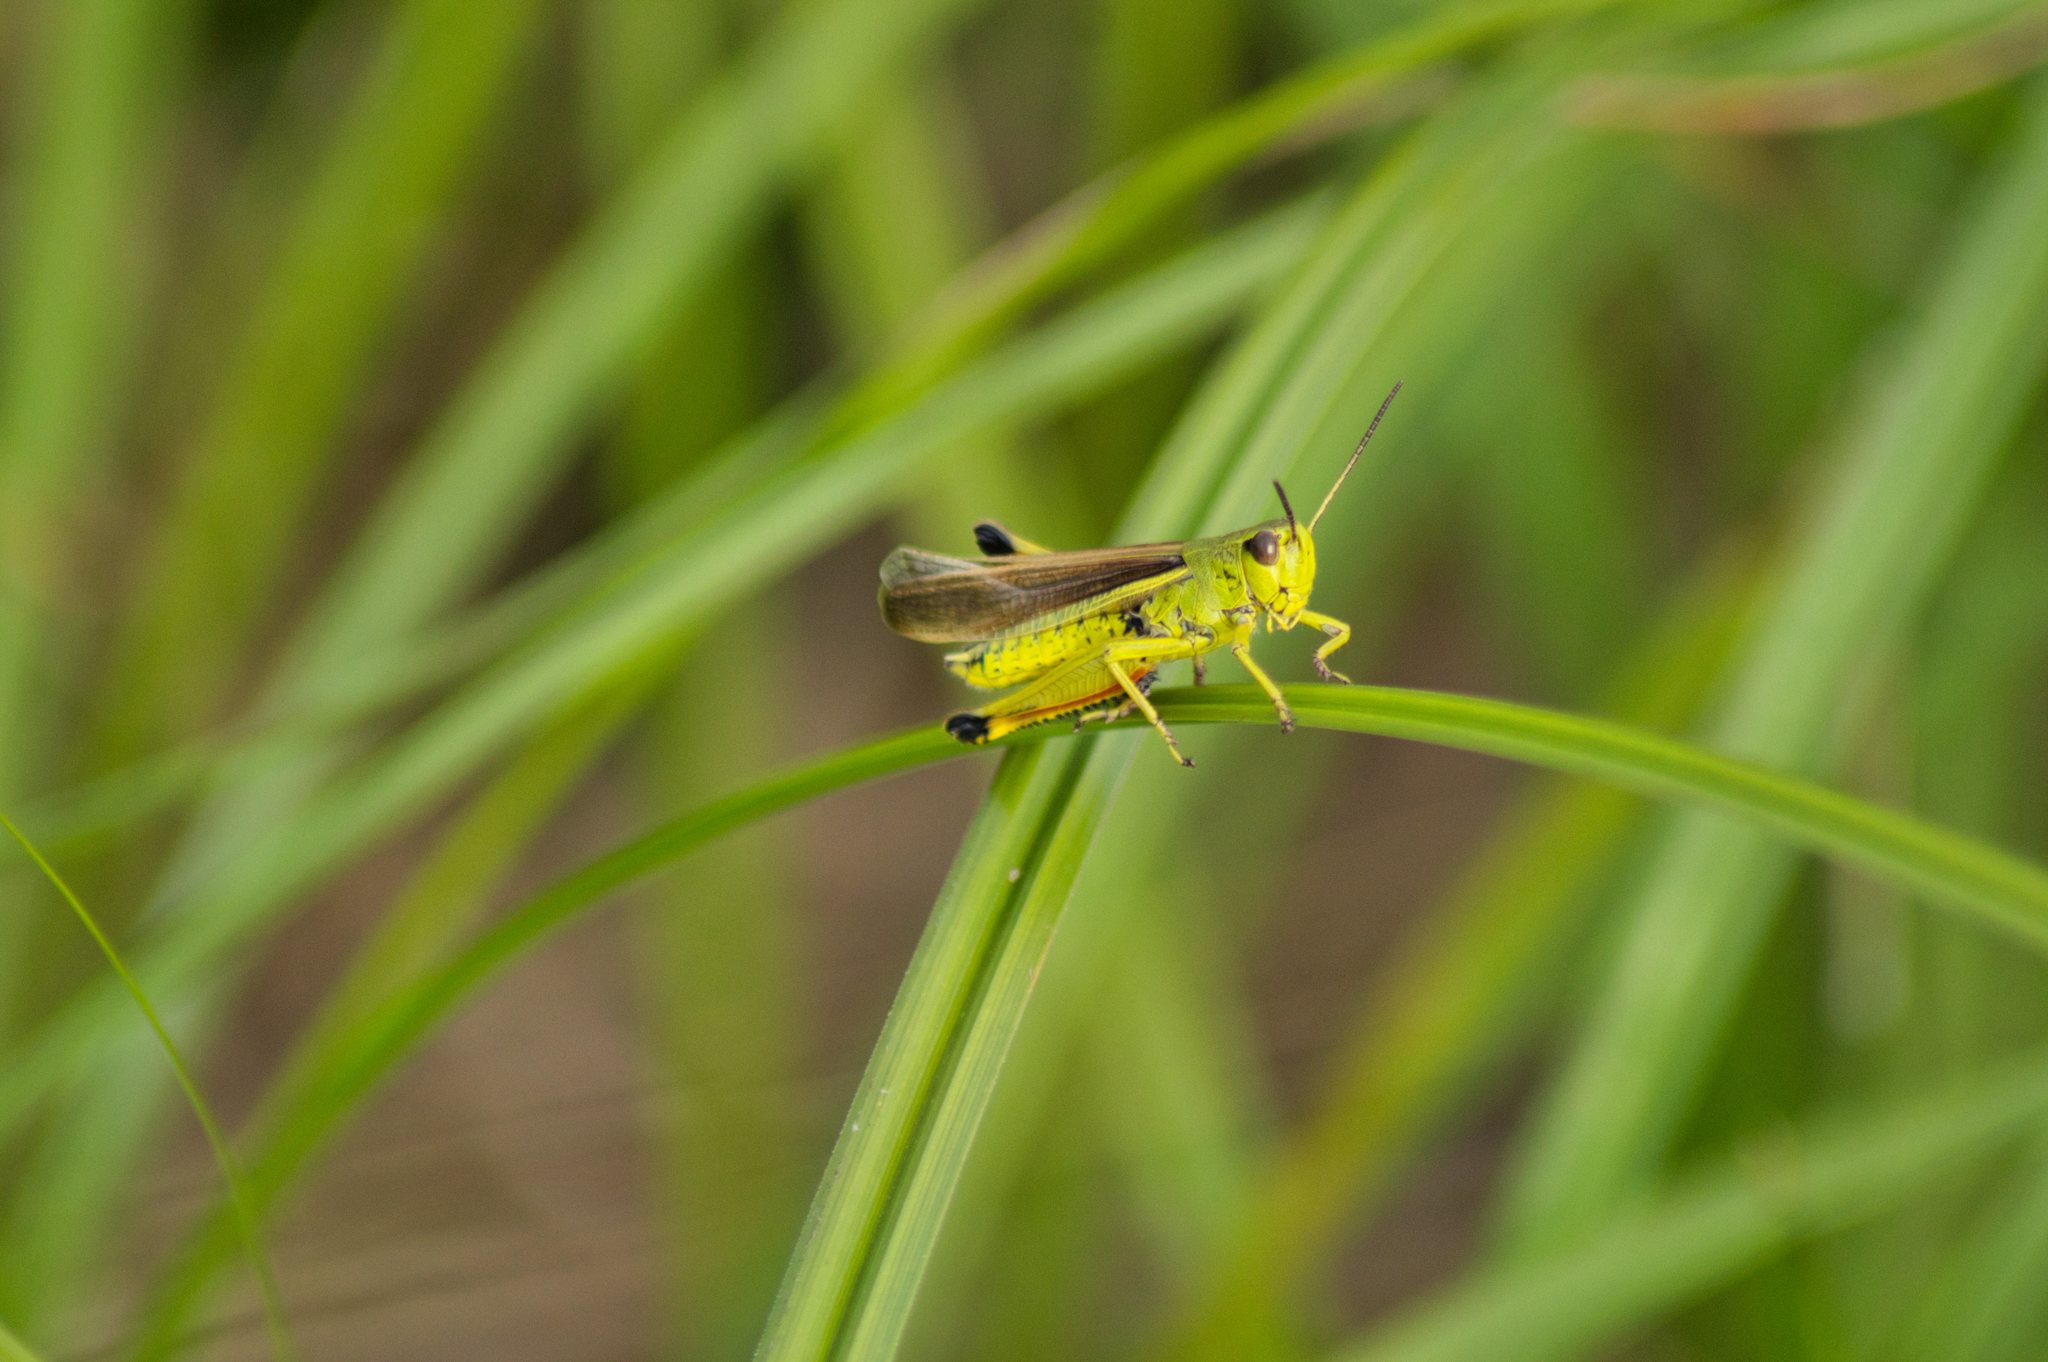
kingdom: Animalia
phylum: Arthropoda
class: Insecta
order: Orthoptera
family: Acrididae
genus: Stethophyma
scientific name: Stethophyma grossum
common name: Large marsh grasshopper
